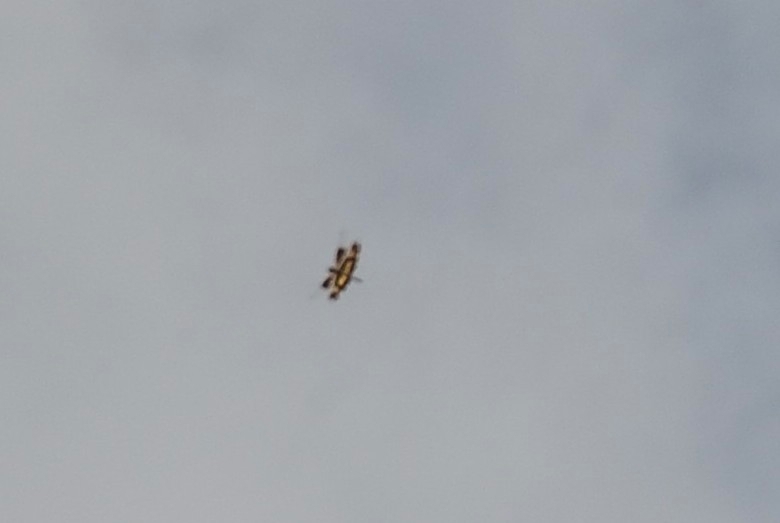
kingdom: Animalia
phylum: Arthropoda
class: Insecta
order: Odonata
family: Libellulidae
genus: Rhyothemis
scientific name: Rhyothemis variegata
